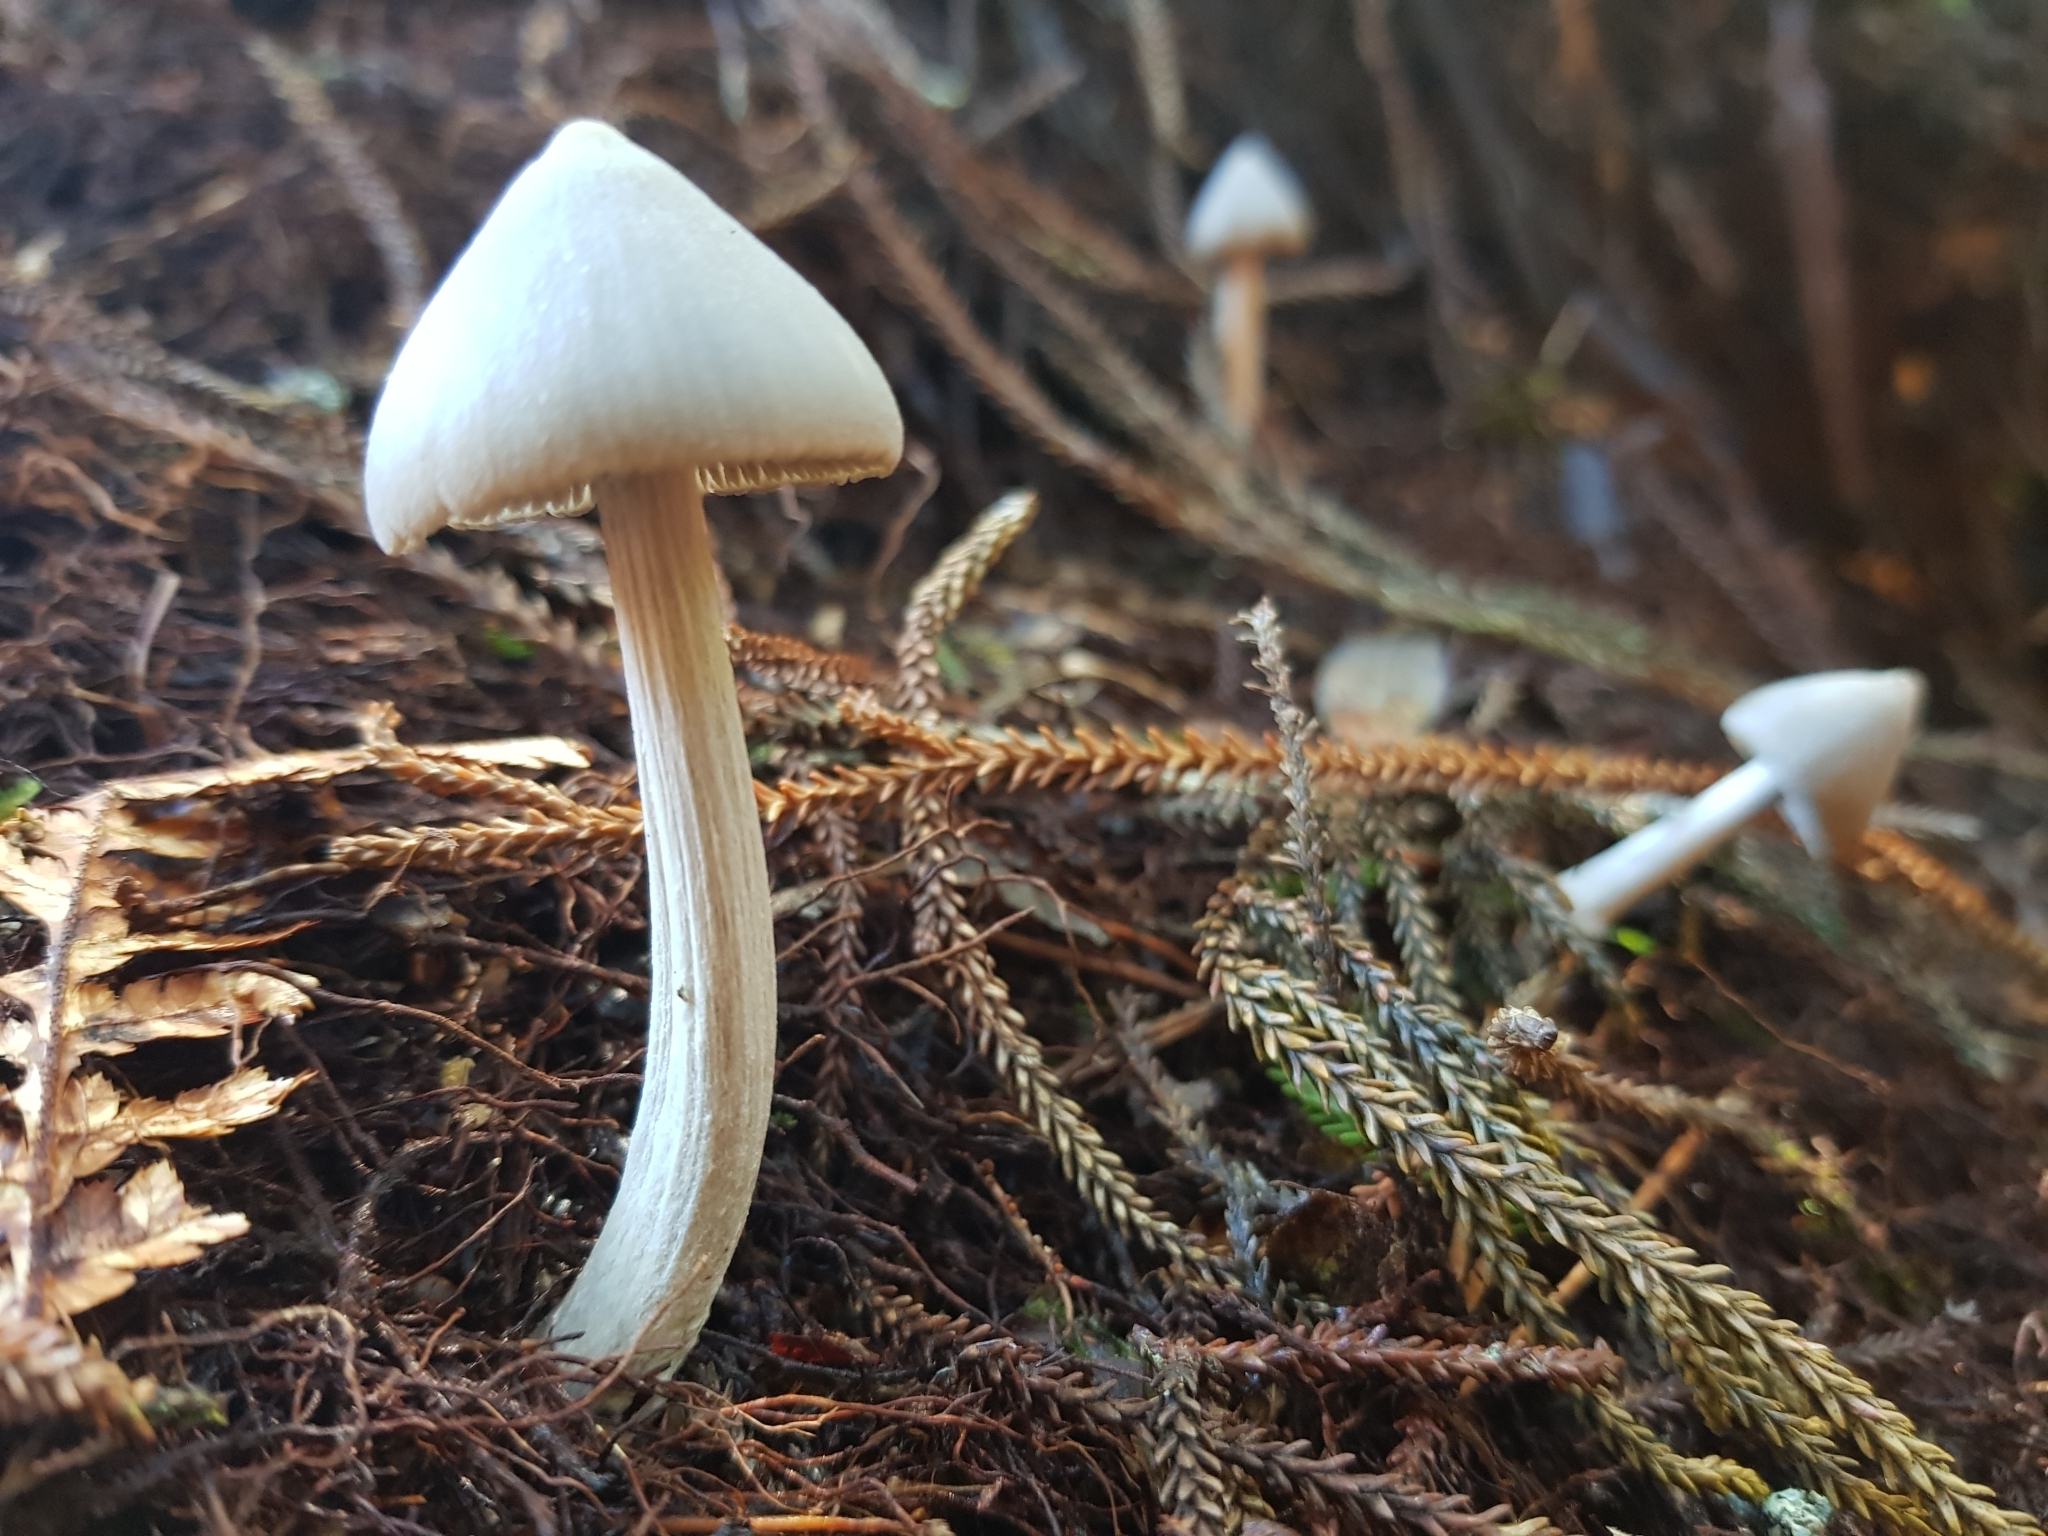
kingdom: Fungi
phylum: Basidiomycota
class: Agaricomycetes
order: Agaricales
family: Entolomataceae
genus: Entoloma
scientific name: Entoloma canoconicum
